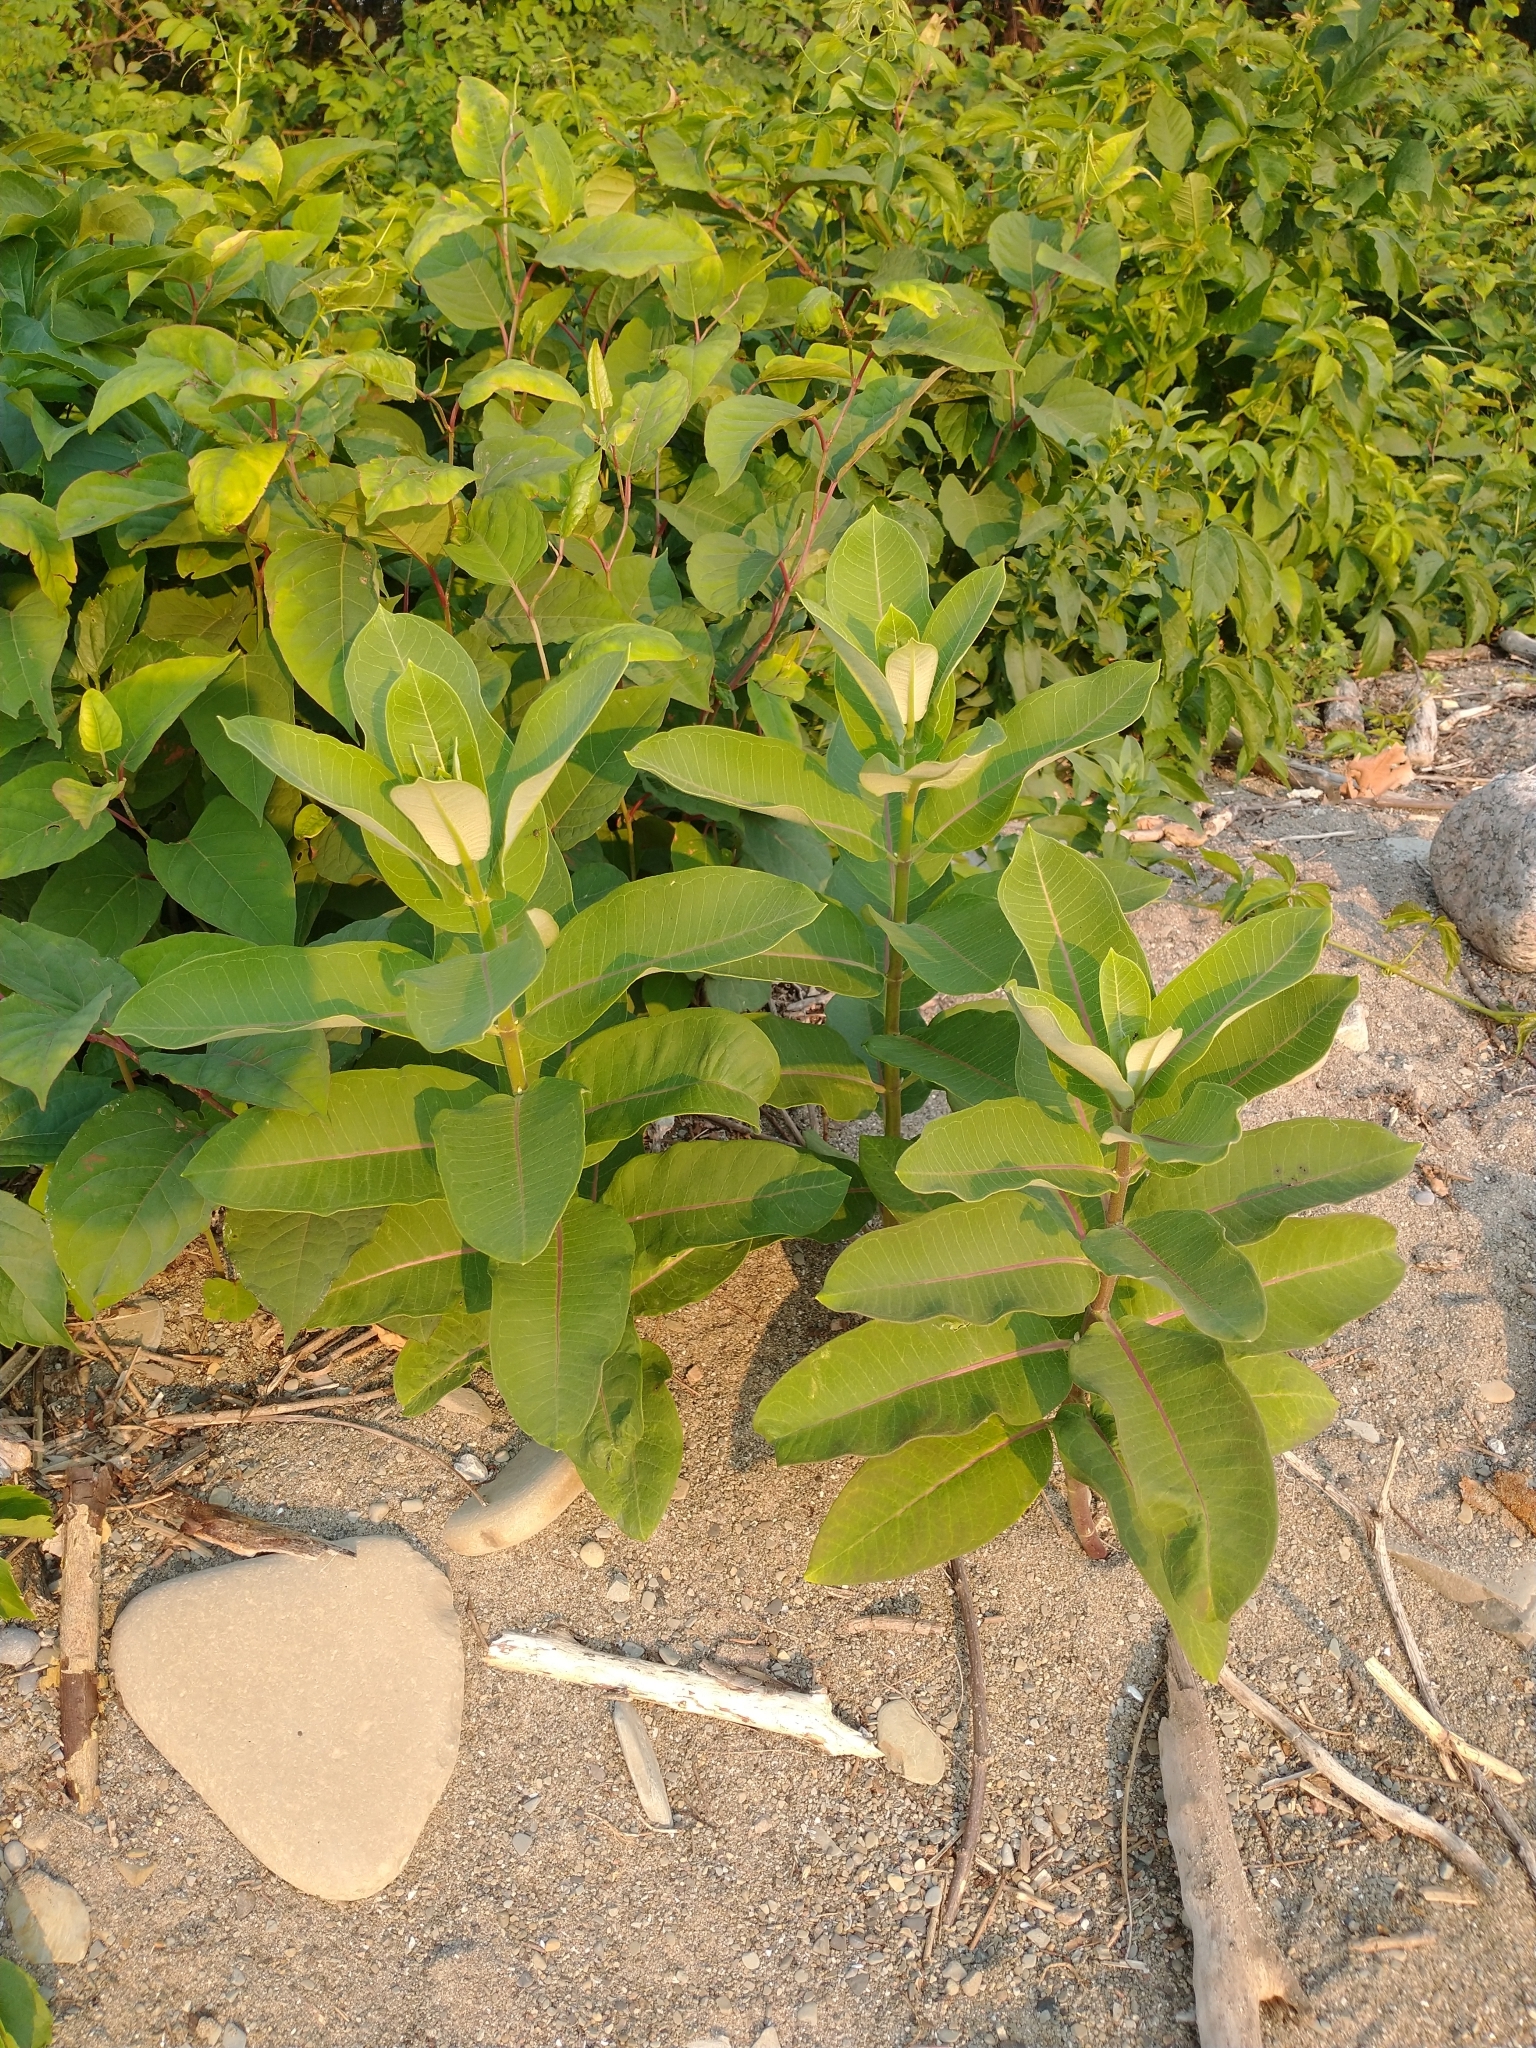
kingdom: Plantae
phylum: Tracheophyta
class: Magnoliopsida
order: Gentianales
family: Apocynaceae
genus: Asclepias
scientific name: Asclepias syriaca
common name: Common milkweed
